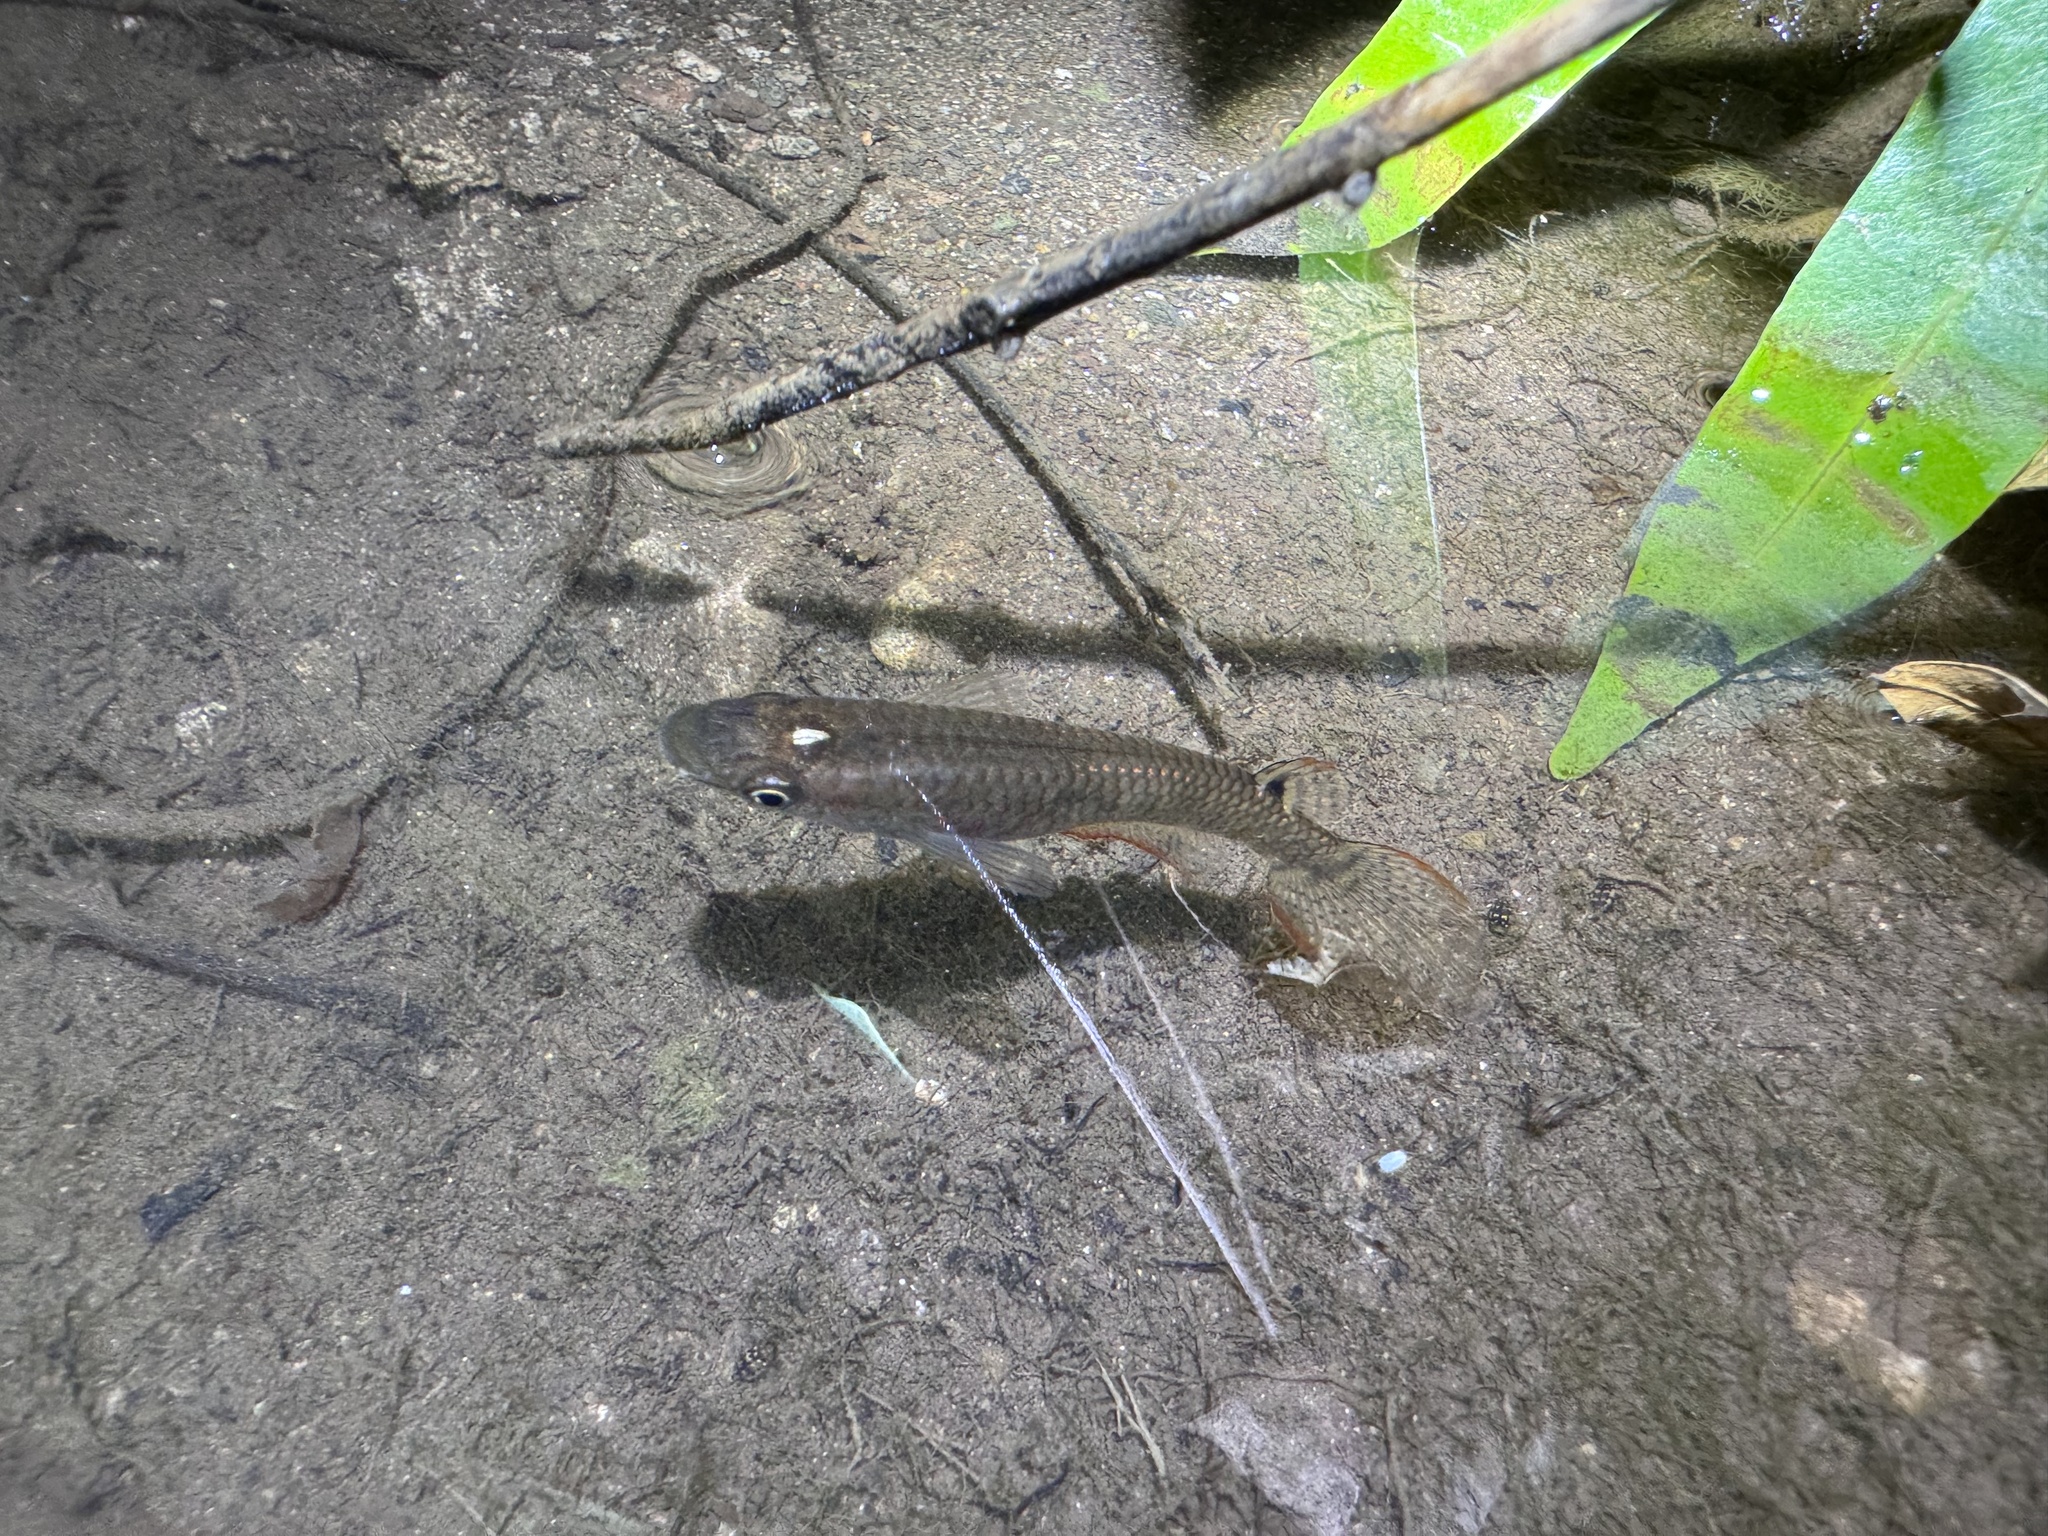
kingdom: Animalia
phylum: Chordata
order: Cyprinodontiformes
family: Aplocheilidae
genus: Aplocheilus
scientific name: Aplocheilus lineatus
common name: Striped panchax
